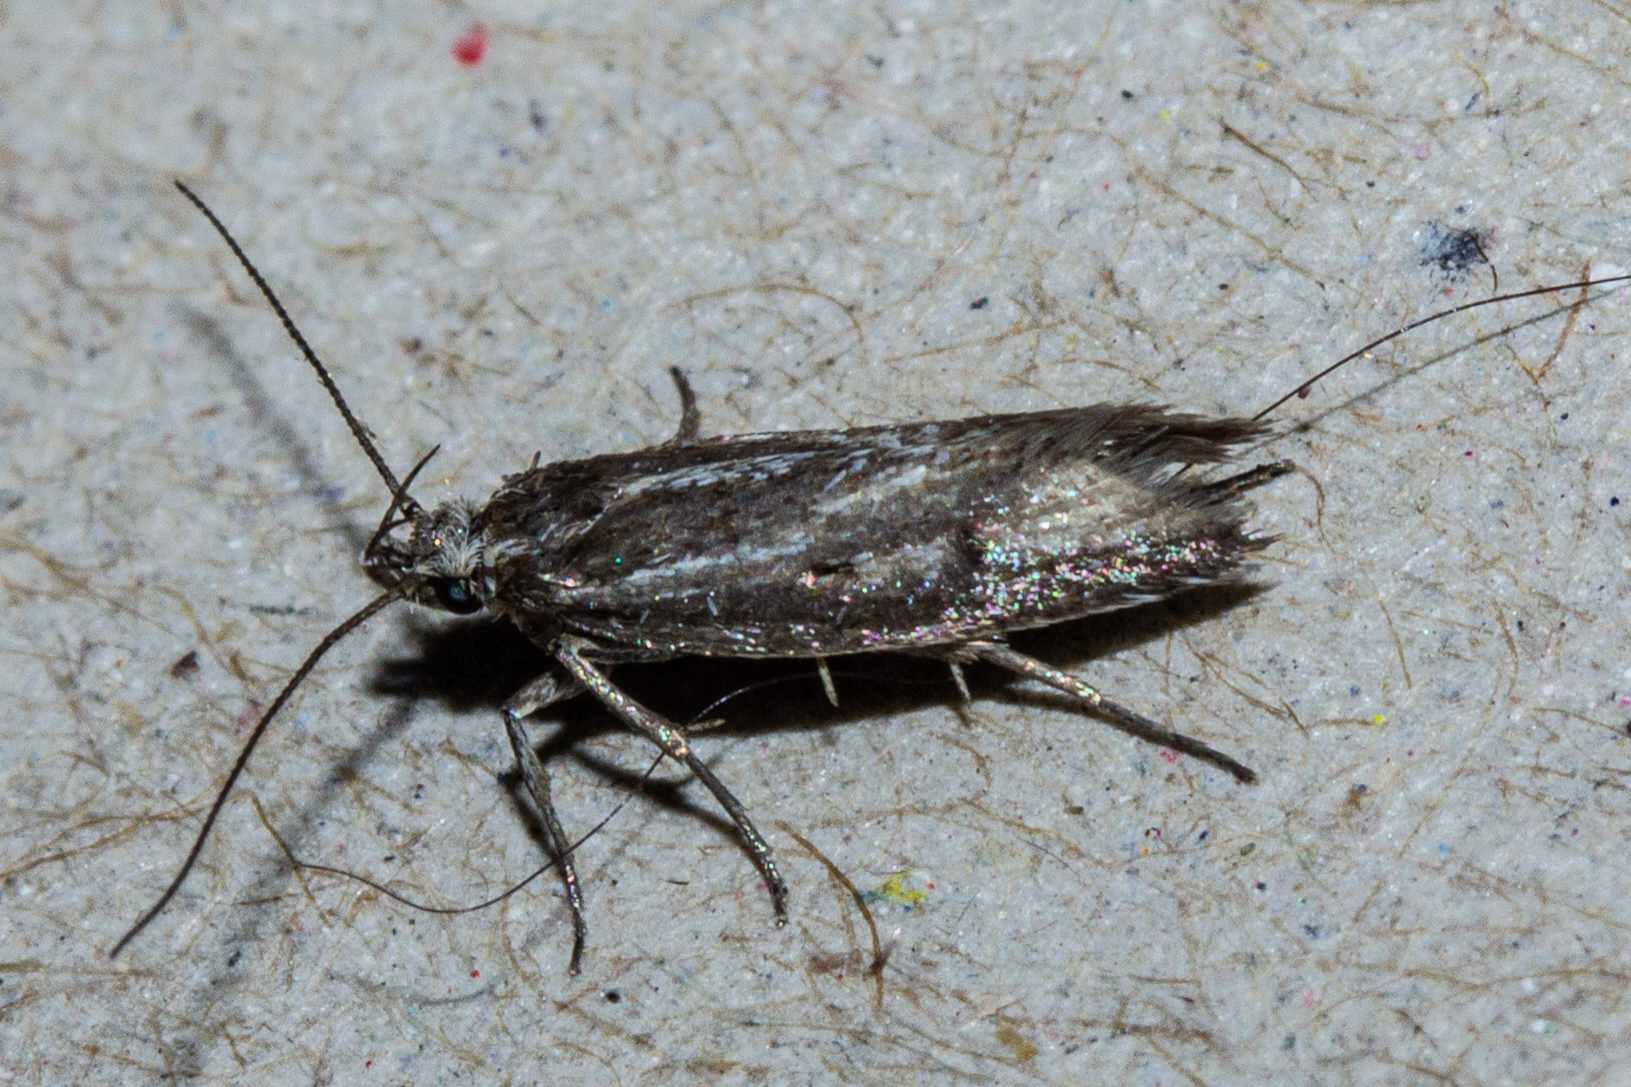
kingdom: Animalia
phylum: Arthropoda
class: Insecta
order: Lepidoptera
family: Oecophoridae
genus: Prepalla
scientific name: Prepalla
